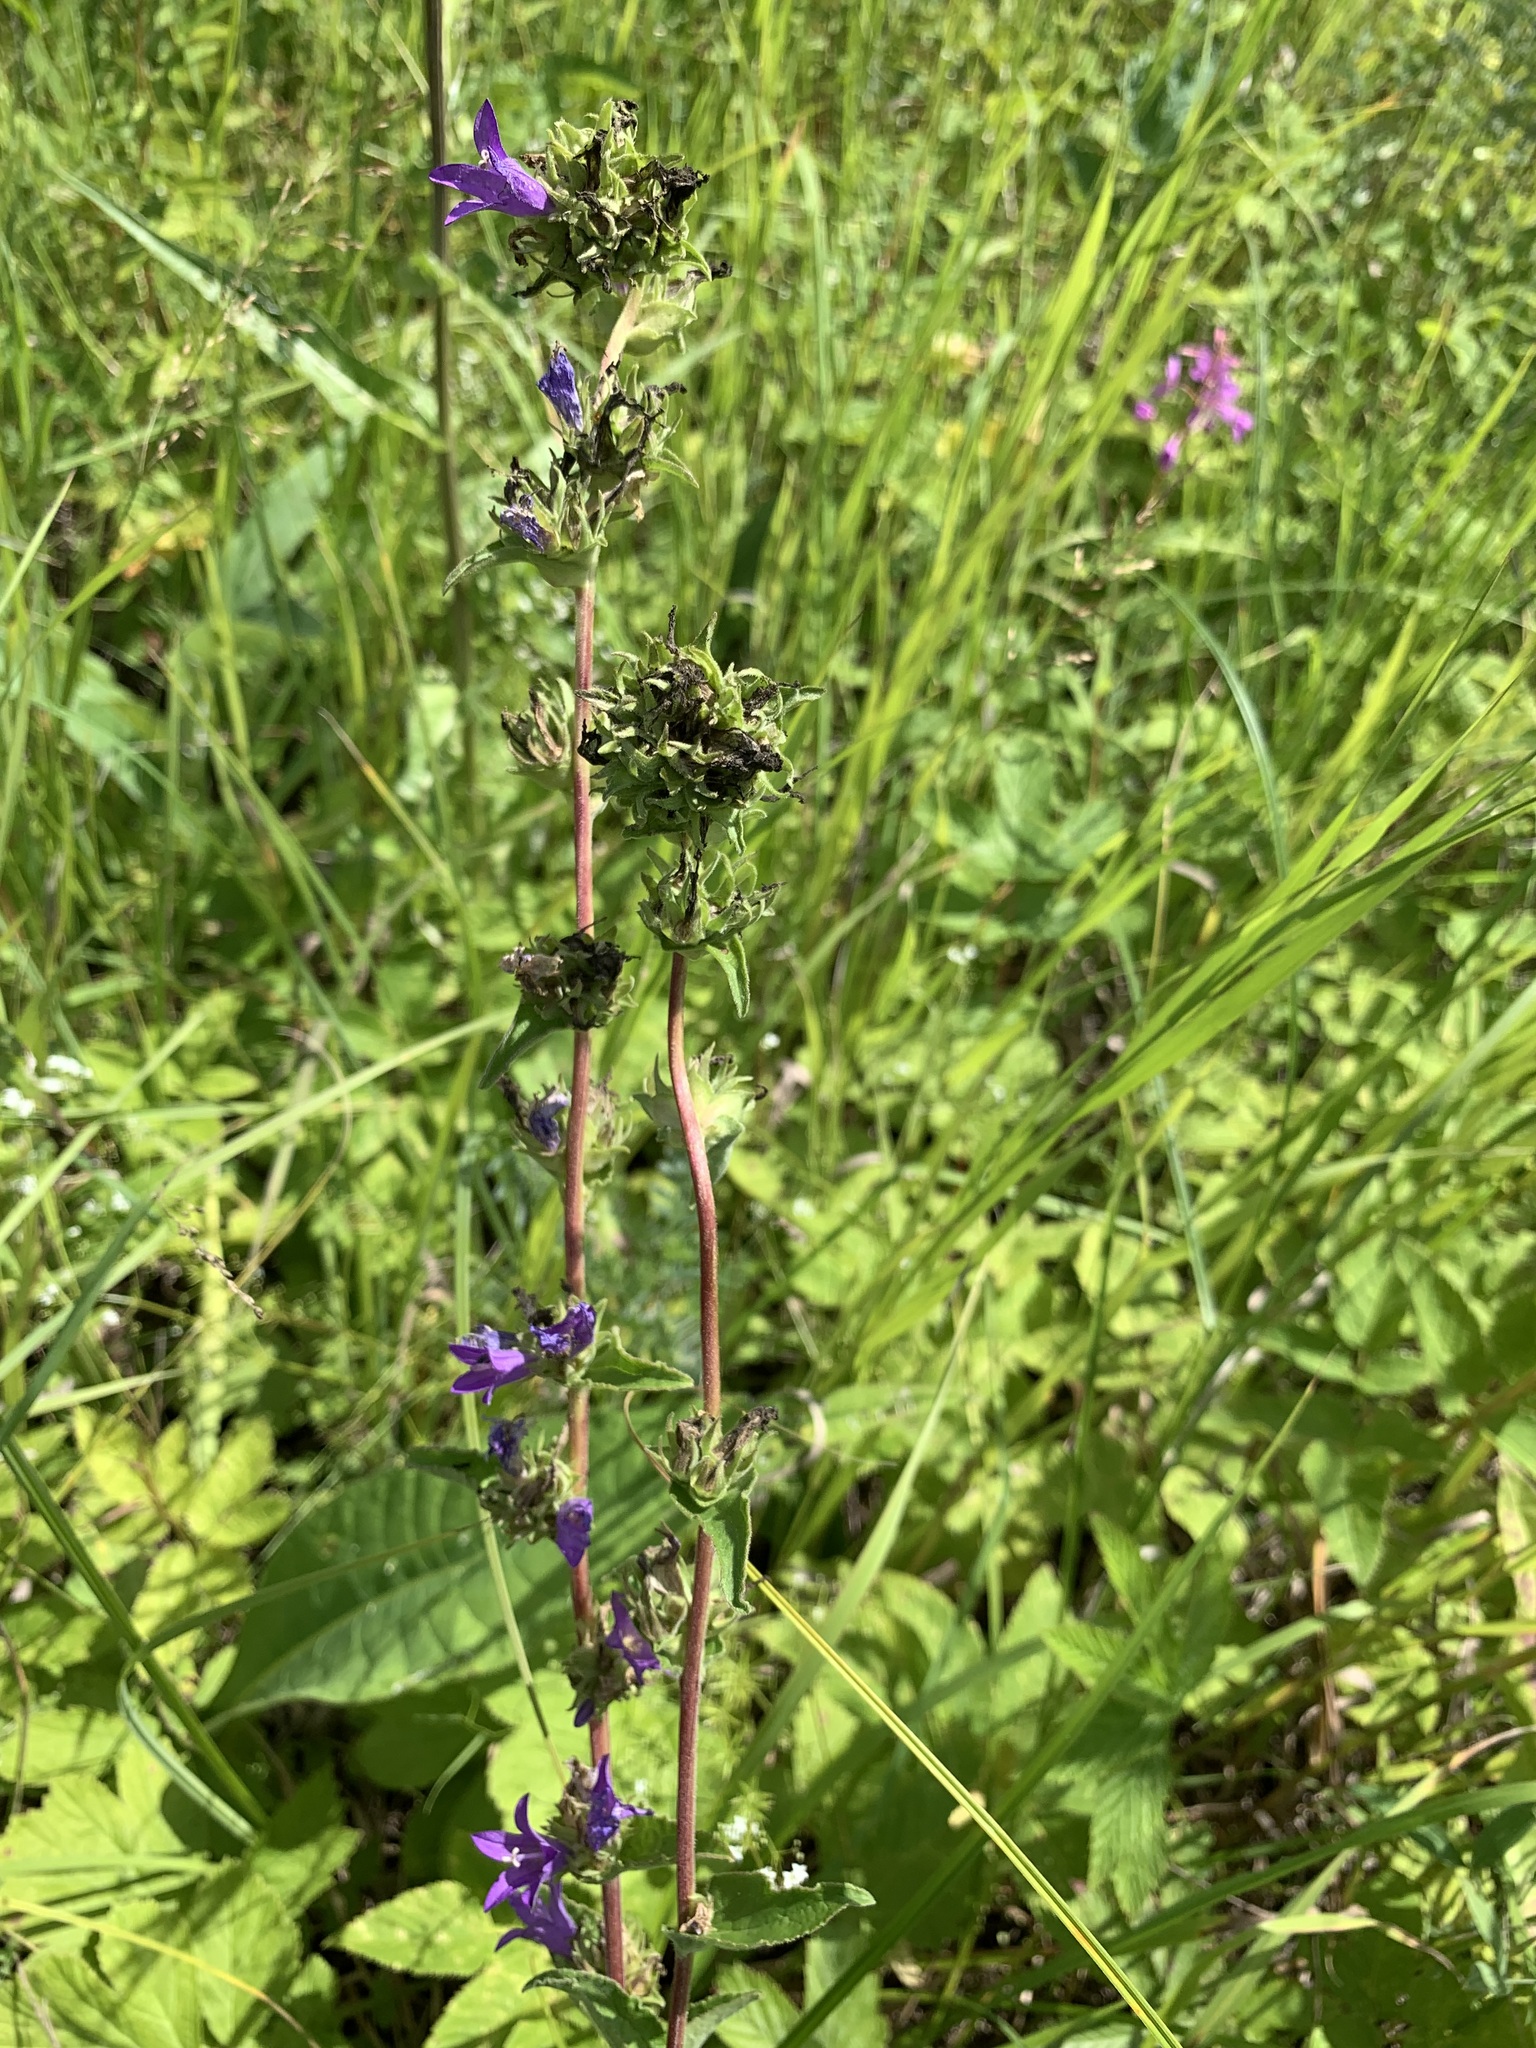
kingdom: Plantae
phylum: Tracheophyta
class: Magnoliopsida
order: Asterales
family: Campanulaceae
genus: Campanula
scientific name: Campanula glomerata
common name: Clustered bellflower
